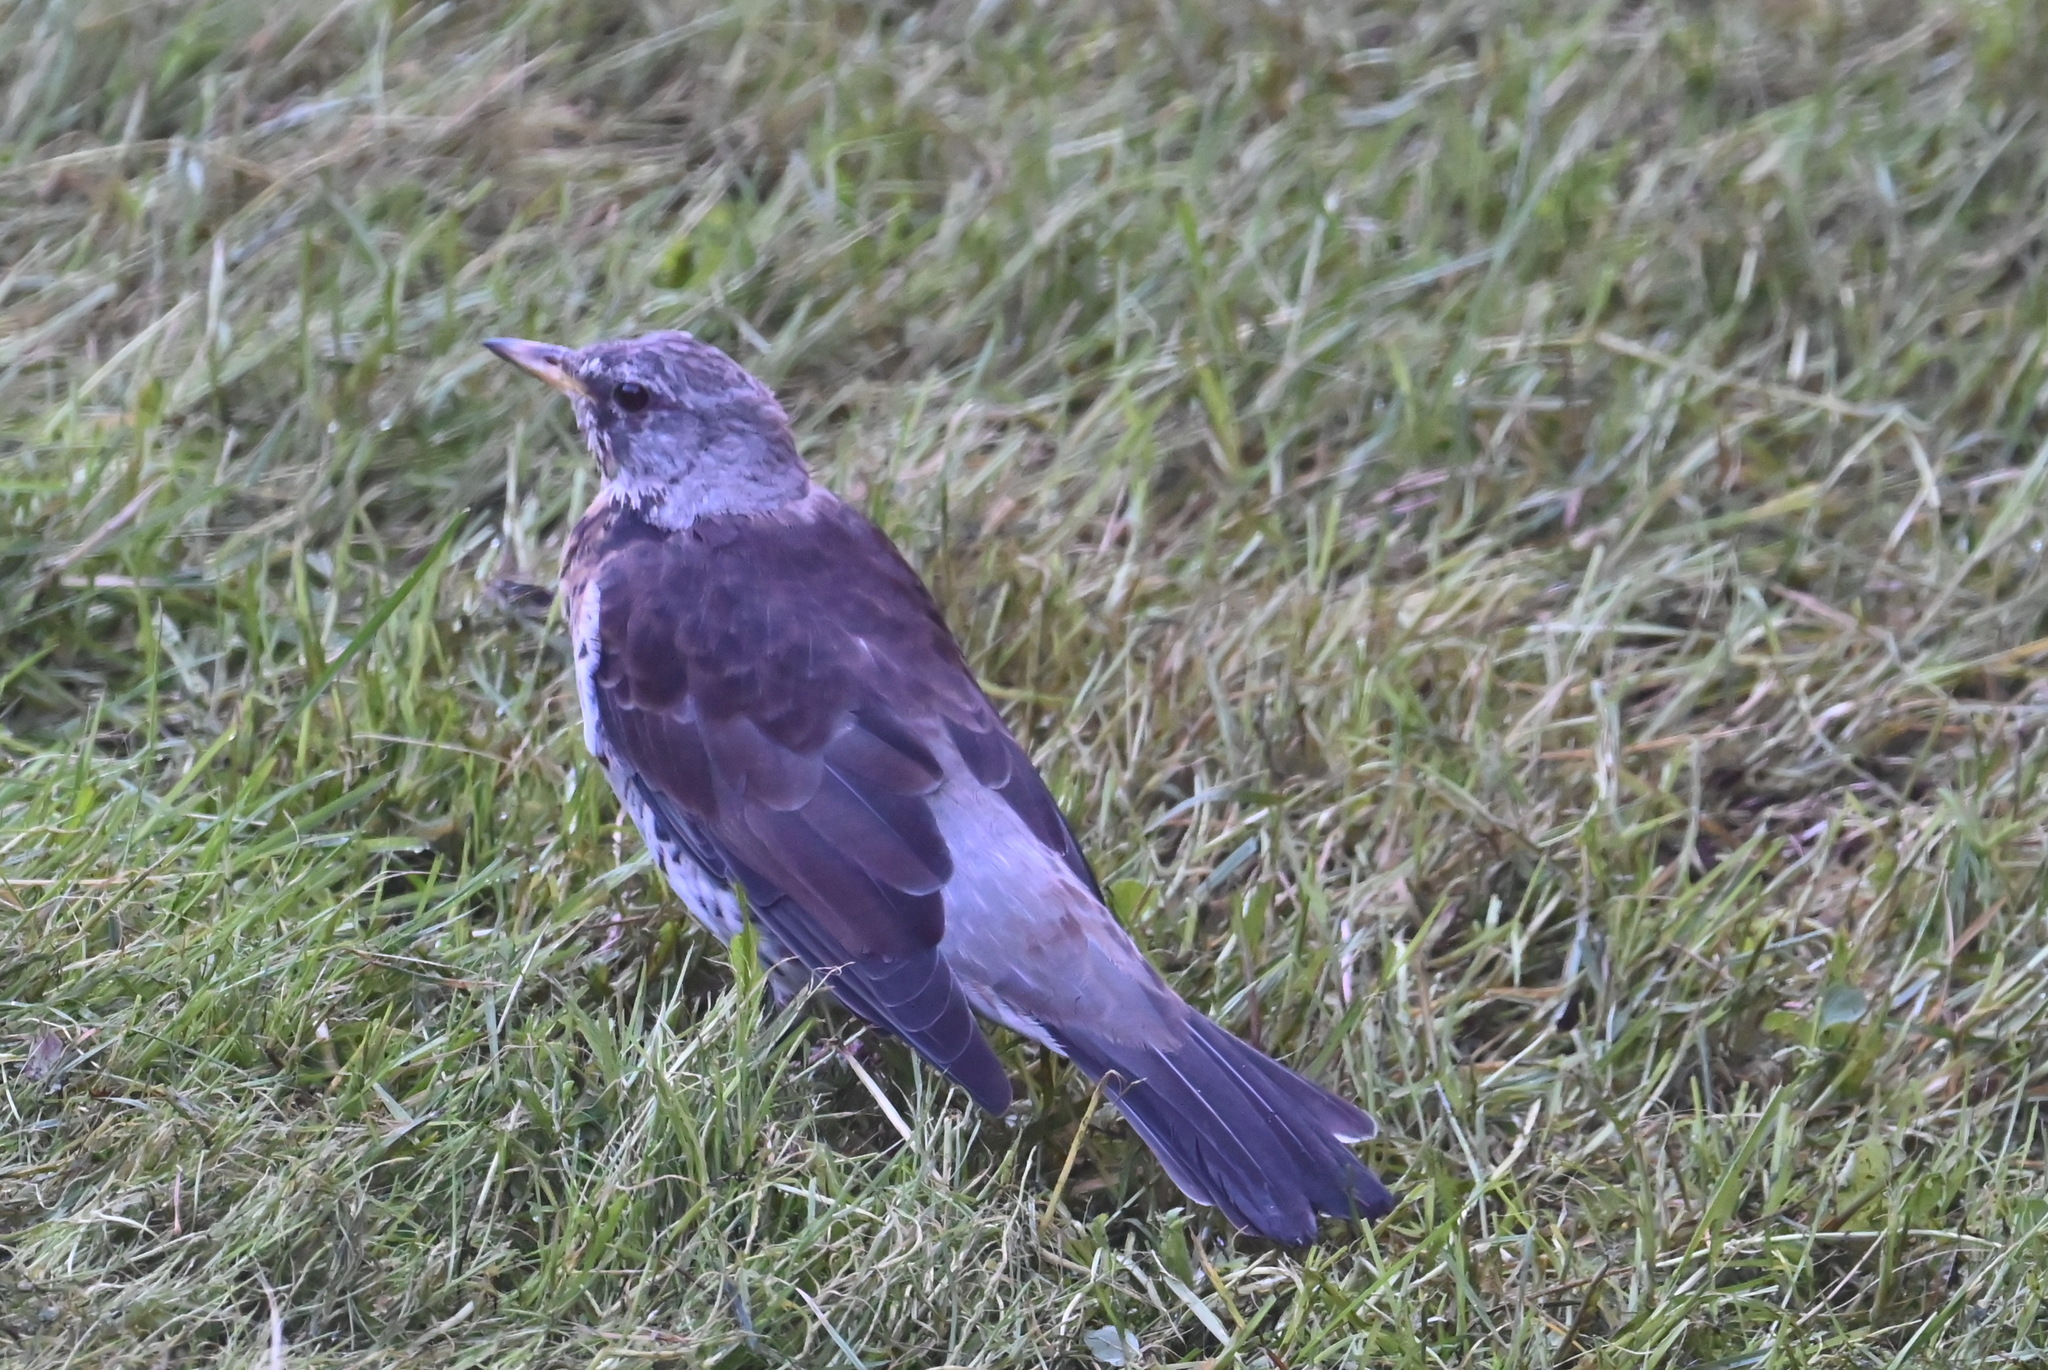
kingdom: Animalia
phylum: Chordata
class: Aves
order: Passeriformes
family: Turdidae
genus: Turdus
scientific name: Turdus pilaris
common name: Fieldfare
